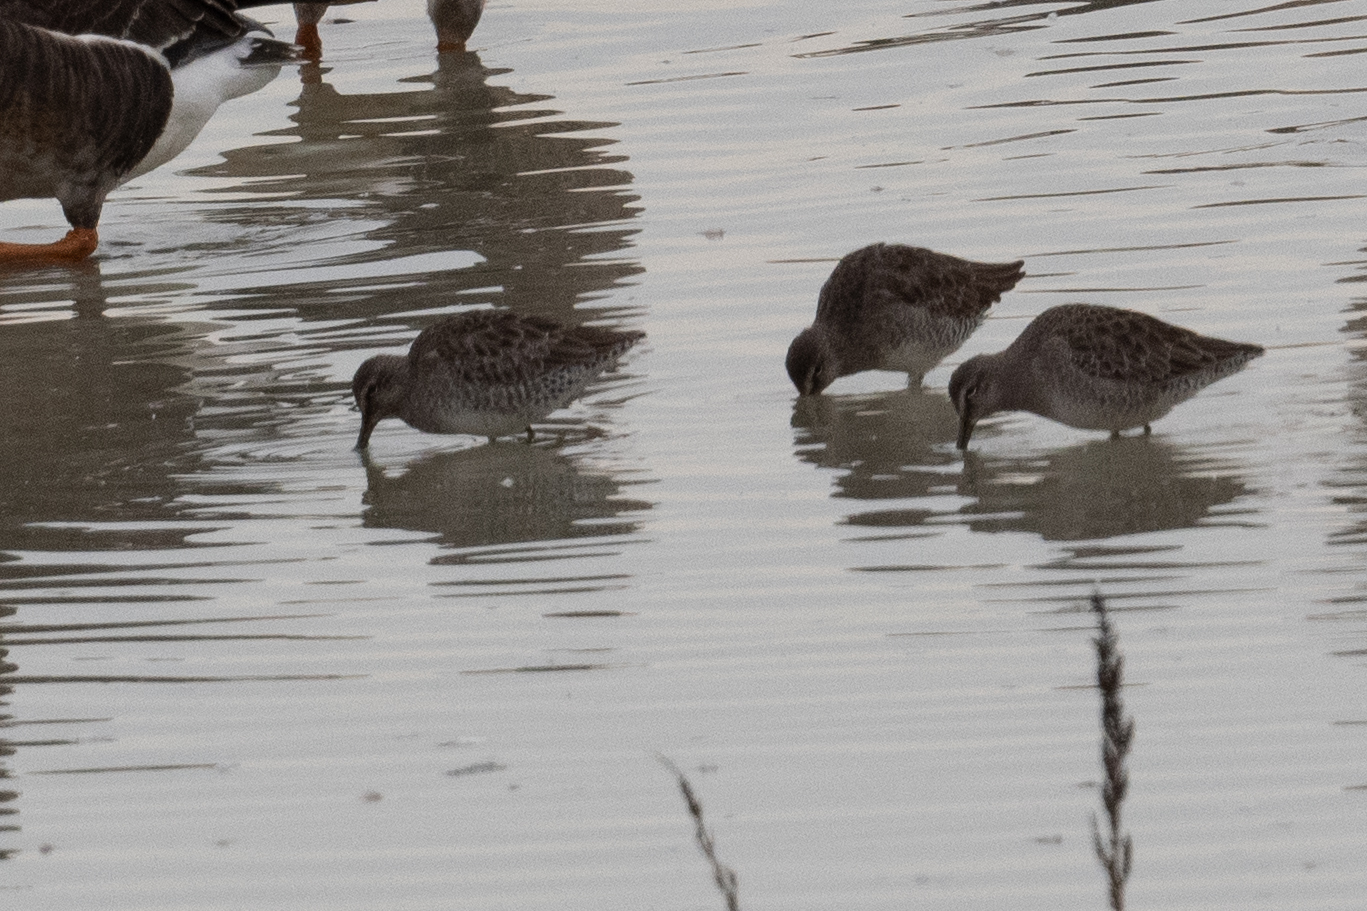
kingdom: Animalia
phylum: Chordata
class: Aves
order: Charadriiformes
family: Scolopacidae
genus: Limnodromus
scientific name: Limnodromus scolopaceus
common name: Long-billed dowitcher
